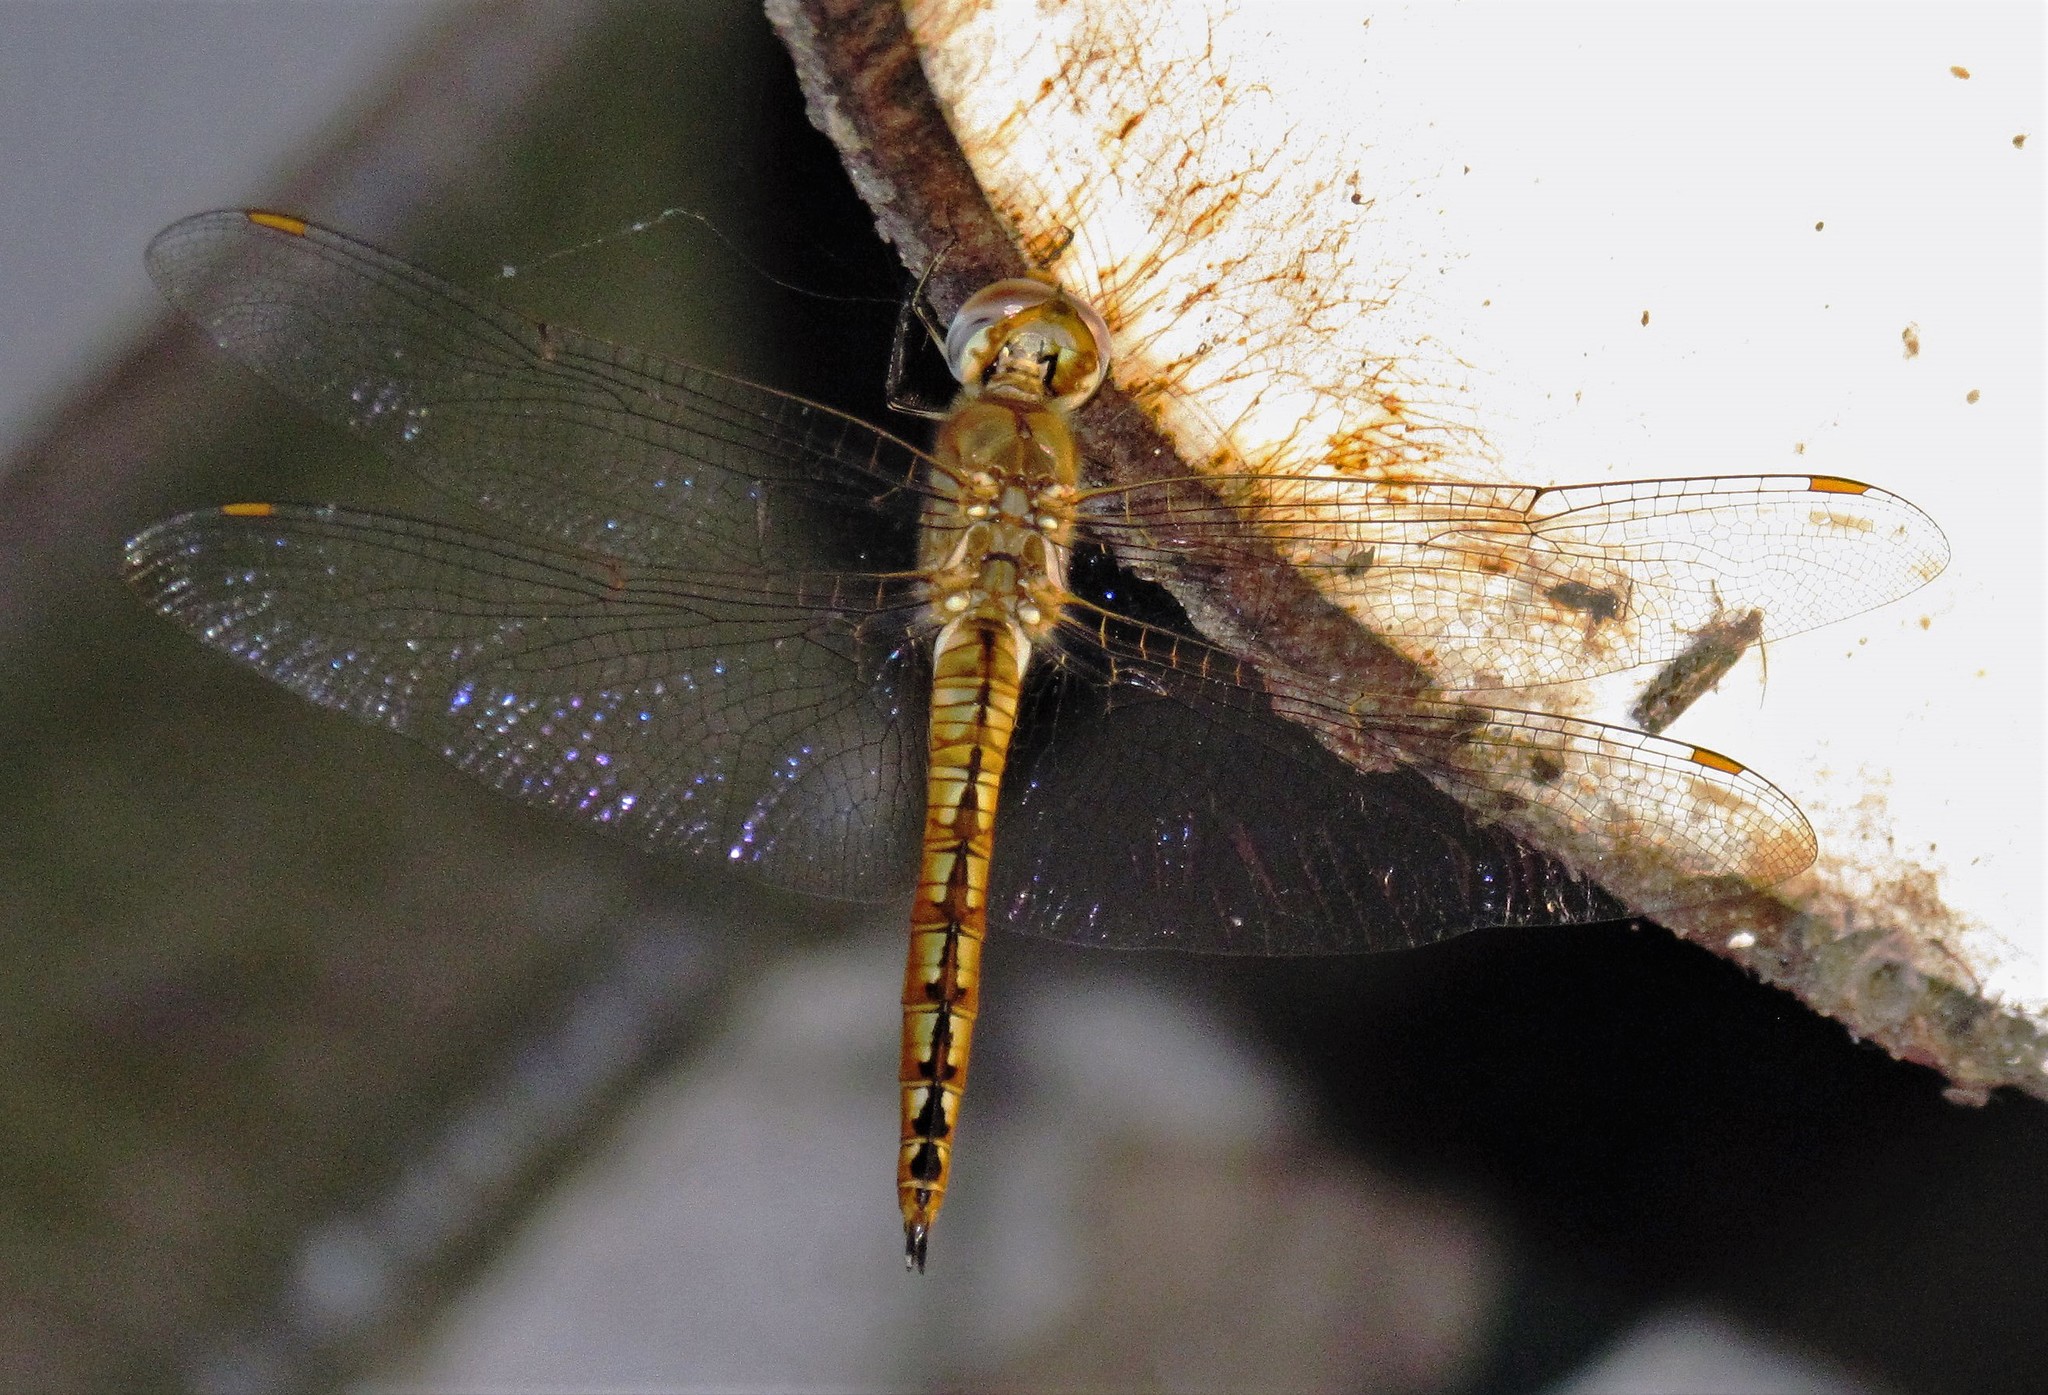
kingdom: Animalia
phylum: Arthropoda
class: Insecta
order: Odonata
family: Libellulidae
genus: Pantala
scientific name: Pantala flavescens
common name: Wandering glider
